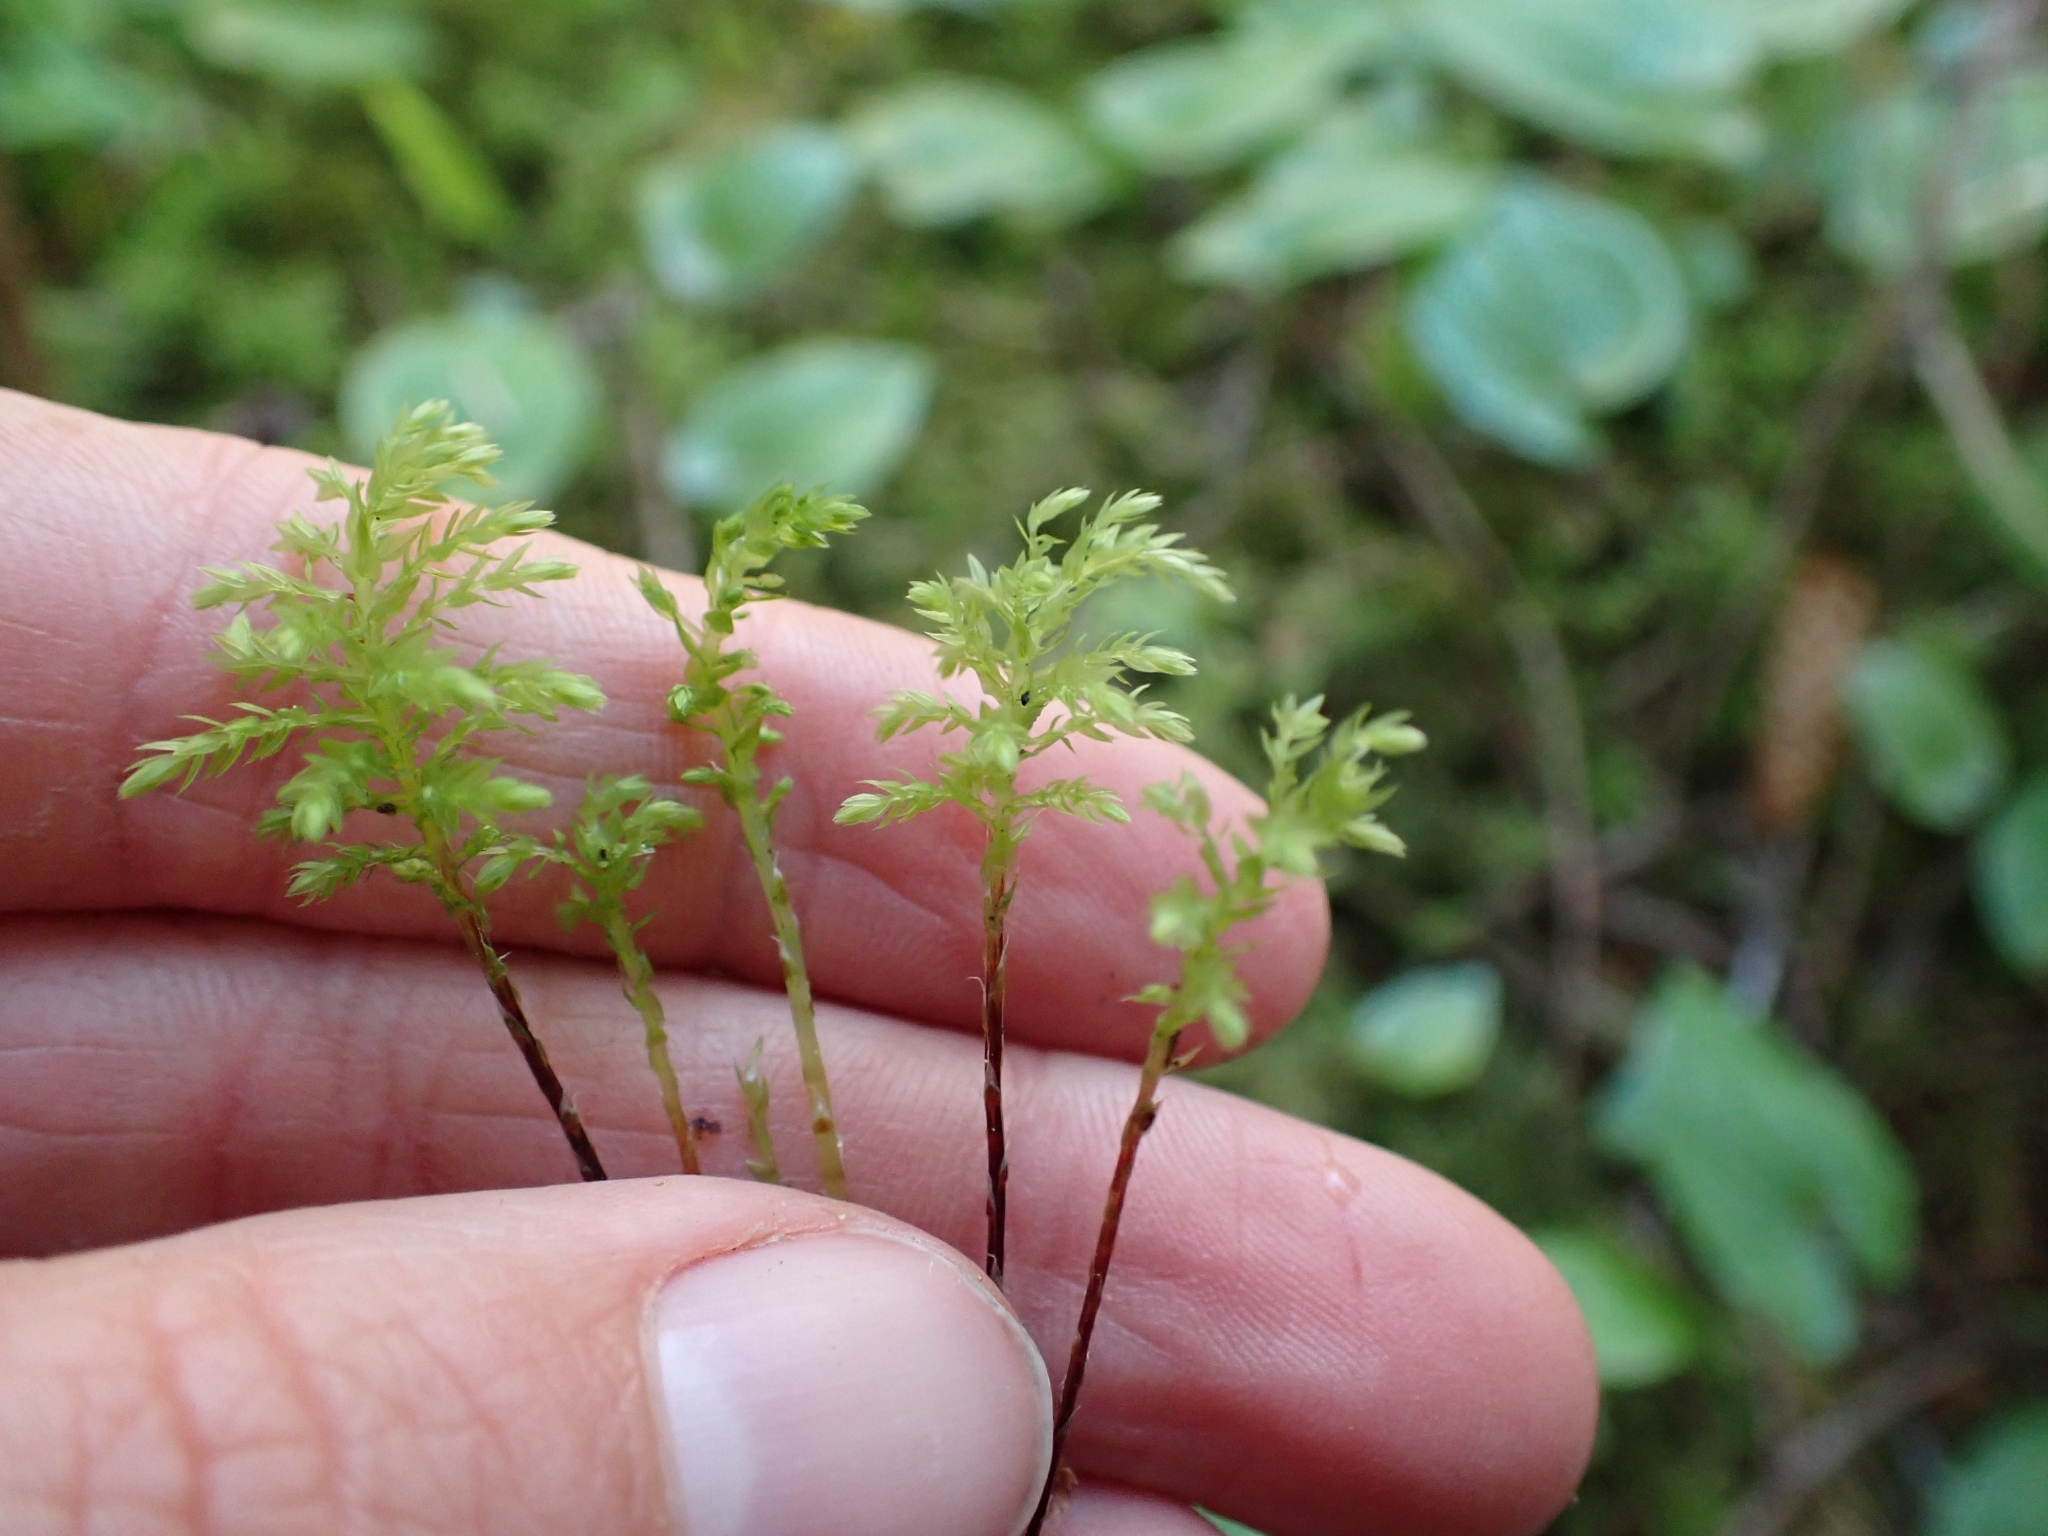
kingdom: Plantae
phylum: Bryophyta
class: Bryopsida
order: Bryales
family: Mniaceae
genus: Leucolepis
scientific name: Leucolepis acanthoneura
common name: Leucolepis umbrella moss
